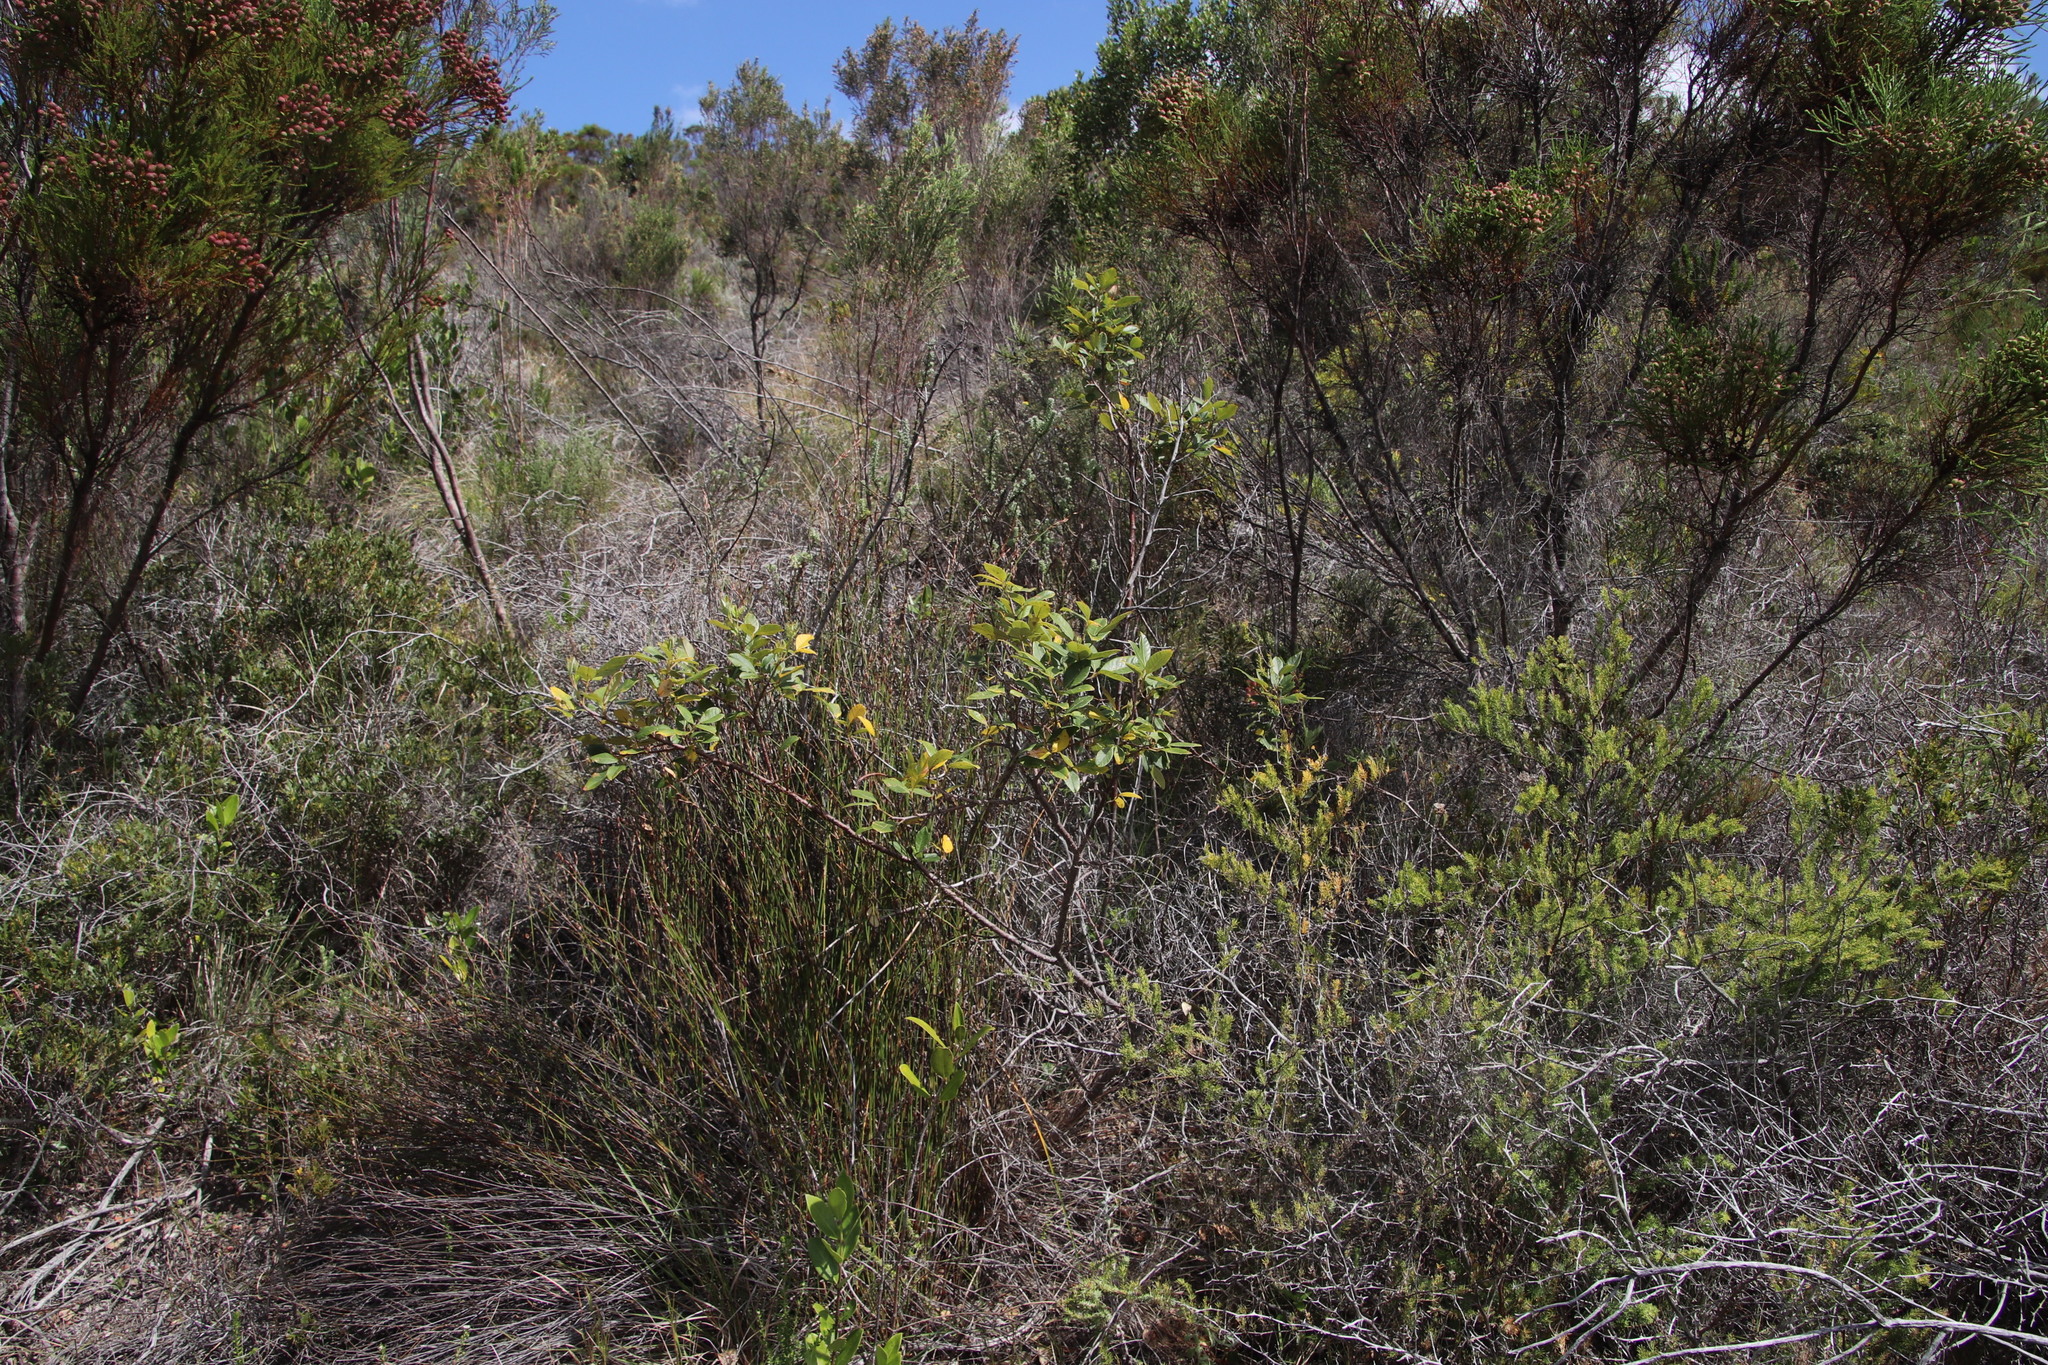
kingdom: Plantae
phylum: Tracheophyta
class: Magnoliopsida
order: Sapindales
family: Anacardiaceae
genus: Searsia
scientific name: Searsia tomentosa
